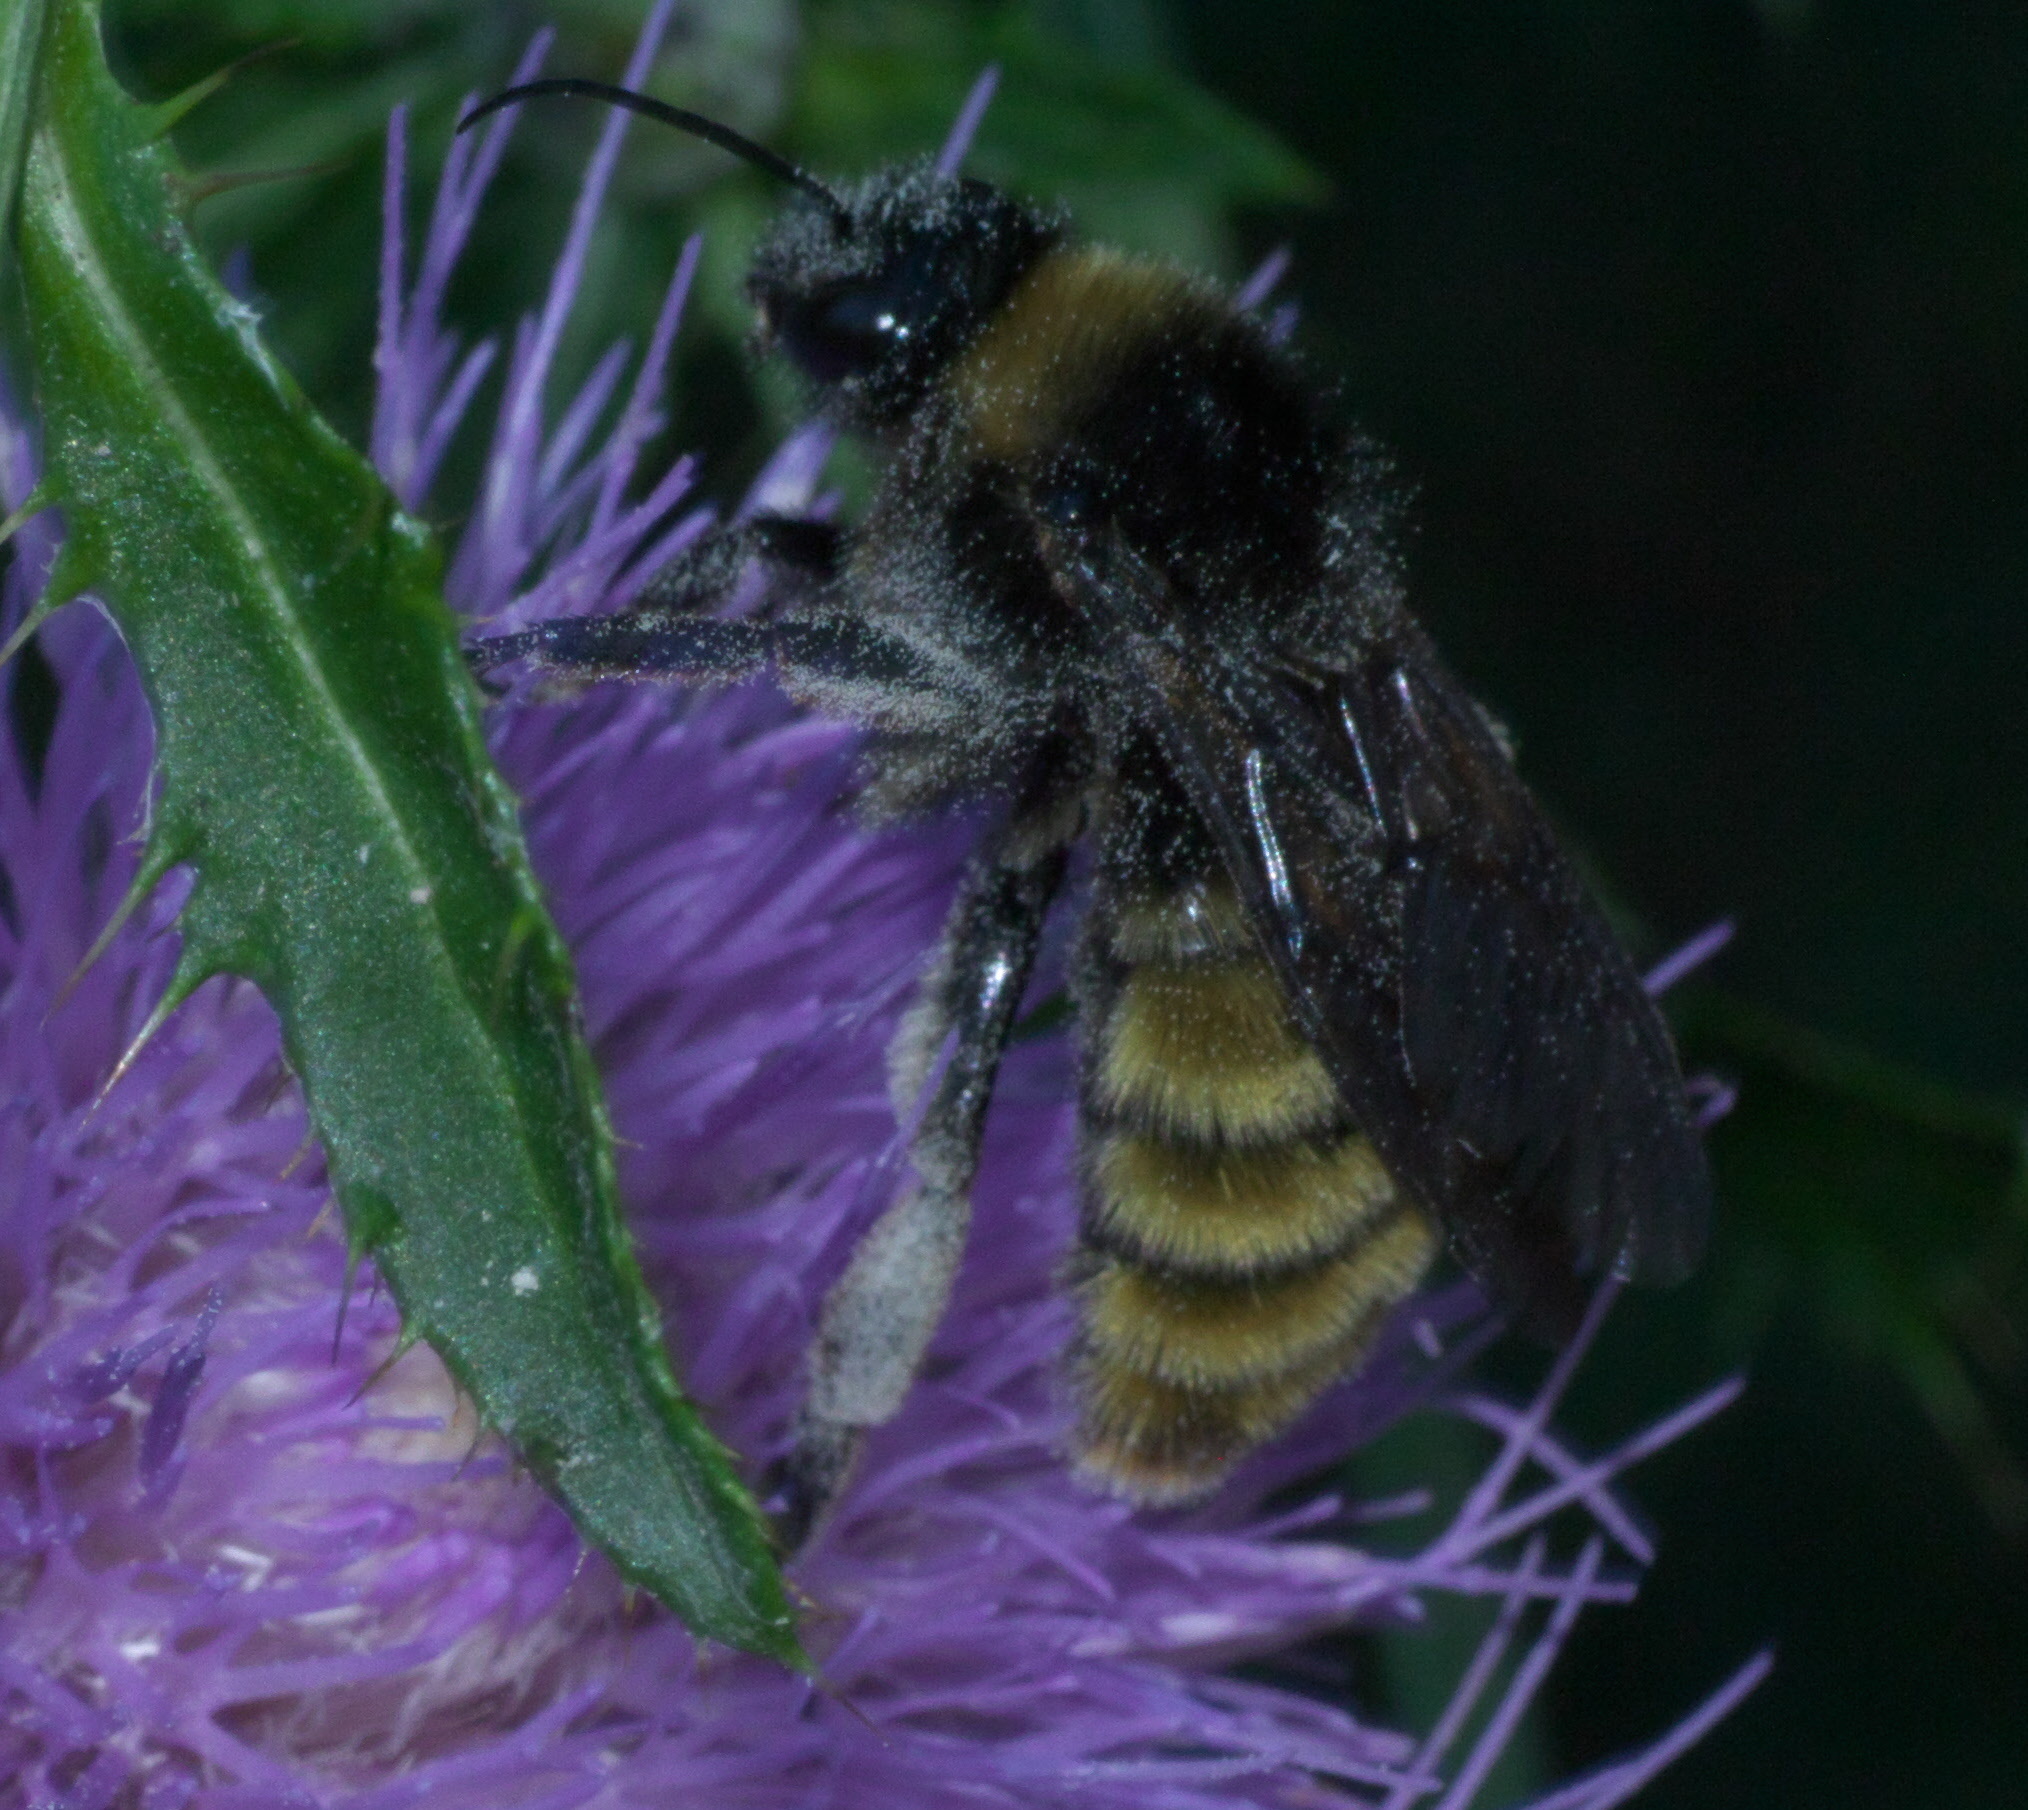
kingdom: Animalia
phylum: Arthropoda
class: Insecta
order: Hymenoptera
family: Apidae
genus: Bombus
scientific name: Bombus pensylvanicus
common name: Bumble bee
